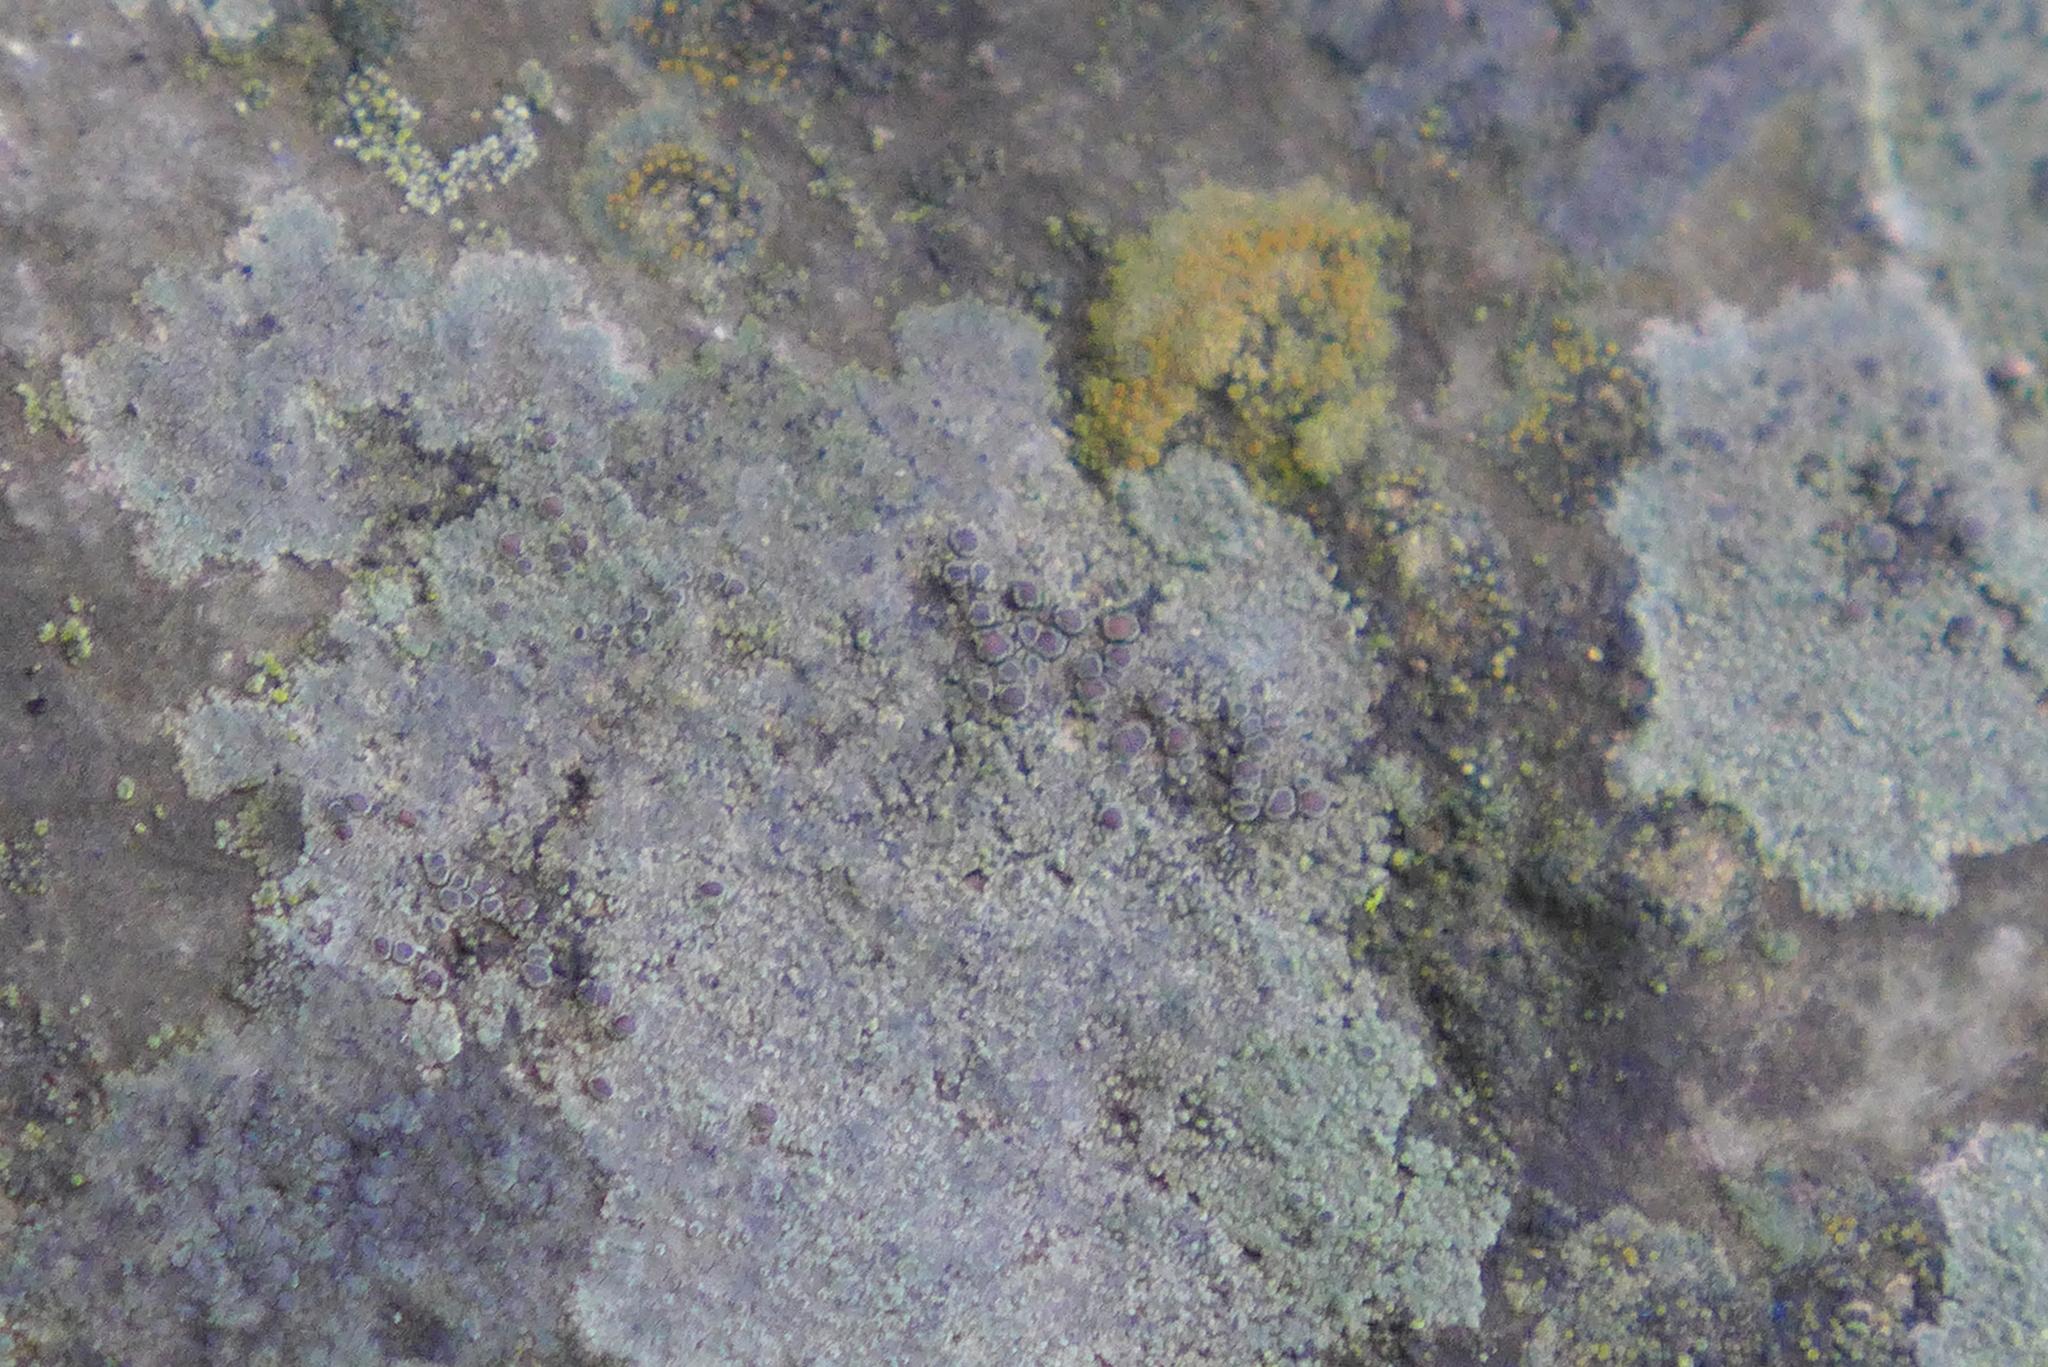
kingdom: Fungi
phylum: Ascomycota
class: Lecanoromycetes
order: Lecanorales
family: Lecanoraceae
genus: Lecanora
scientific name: Lecanora subimmergens
